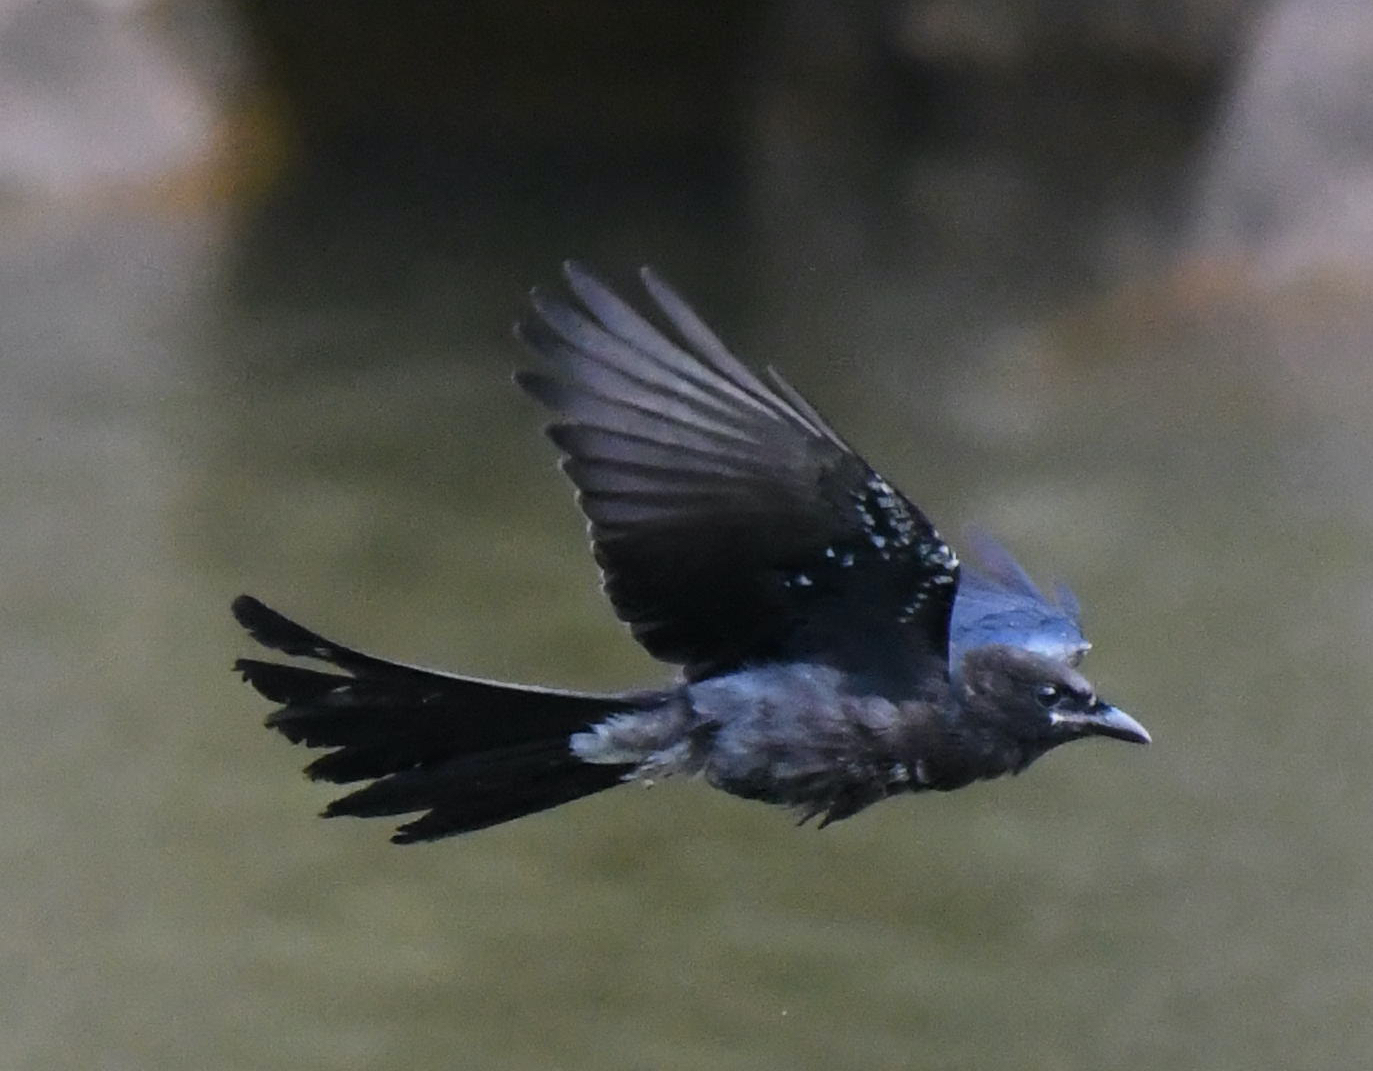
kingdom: Animalia
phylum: Chordata
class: Aves
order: Passeriformes
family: Dicruridae
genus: Dicrurus
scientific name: Dicrurus macrocercus
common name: Black drongo
